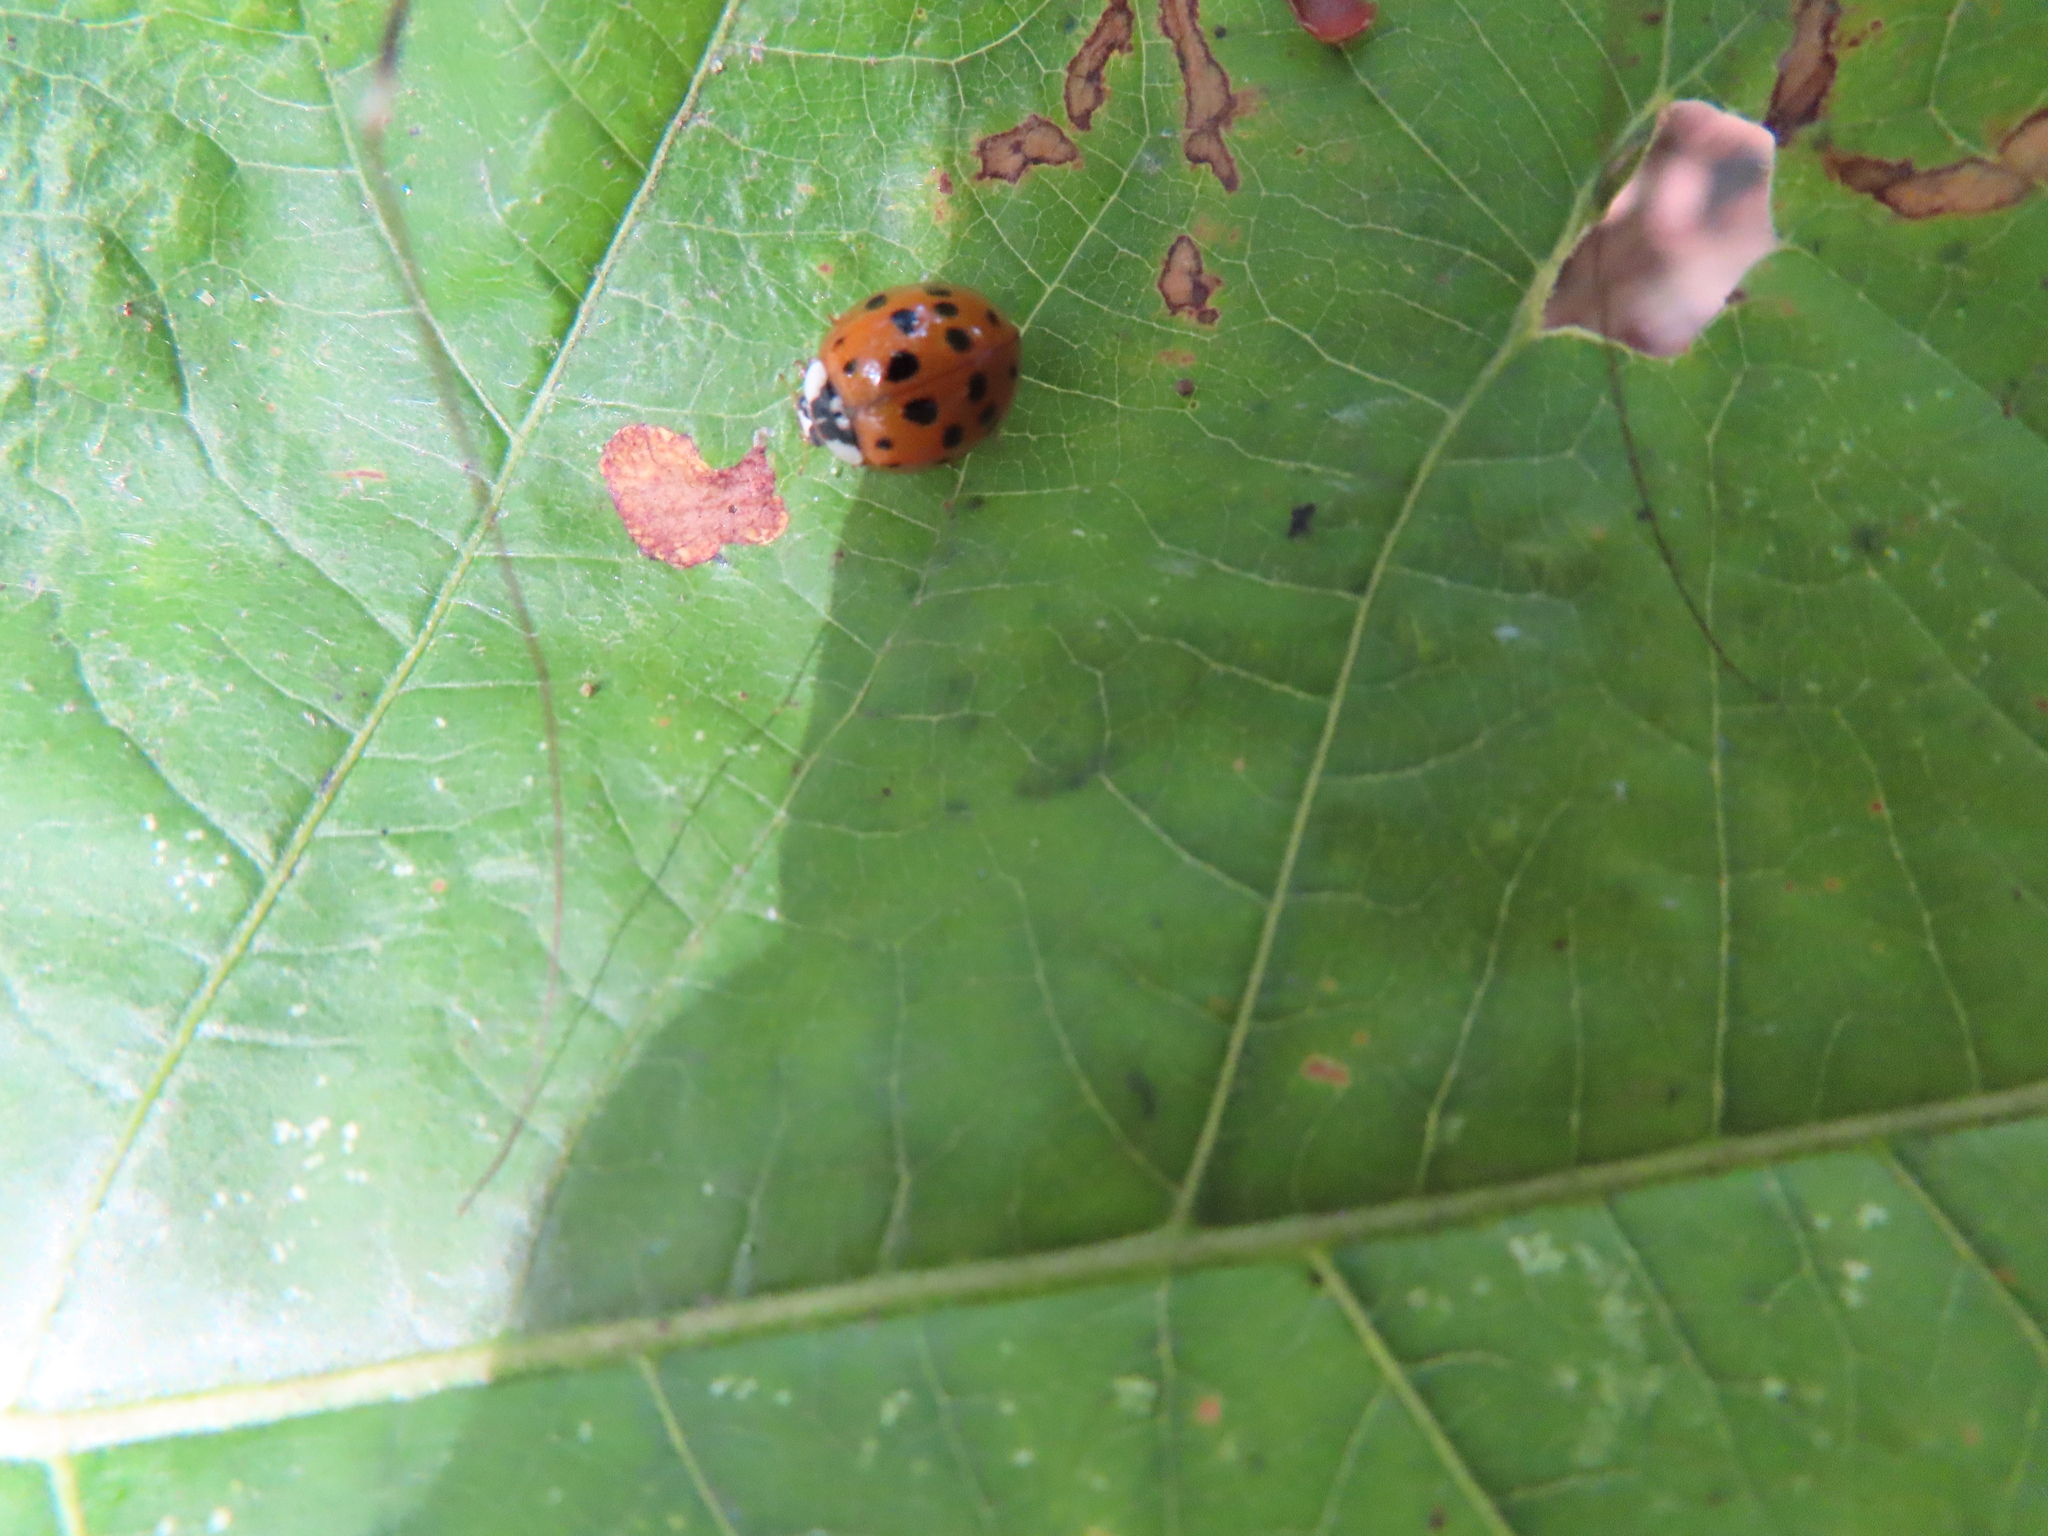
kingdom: Animalia
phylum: Arthropoda
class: Insecta
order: Coleoptera
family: Coccinellidae
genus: Harmonia
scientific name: Harmonia axyridis
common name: Harlequin ladybird
